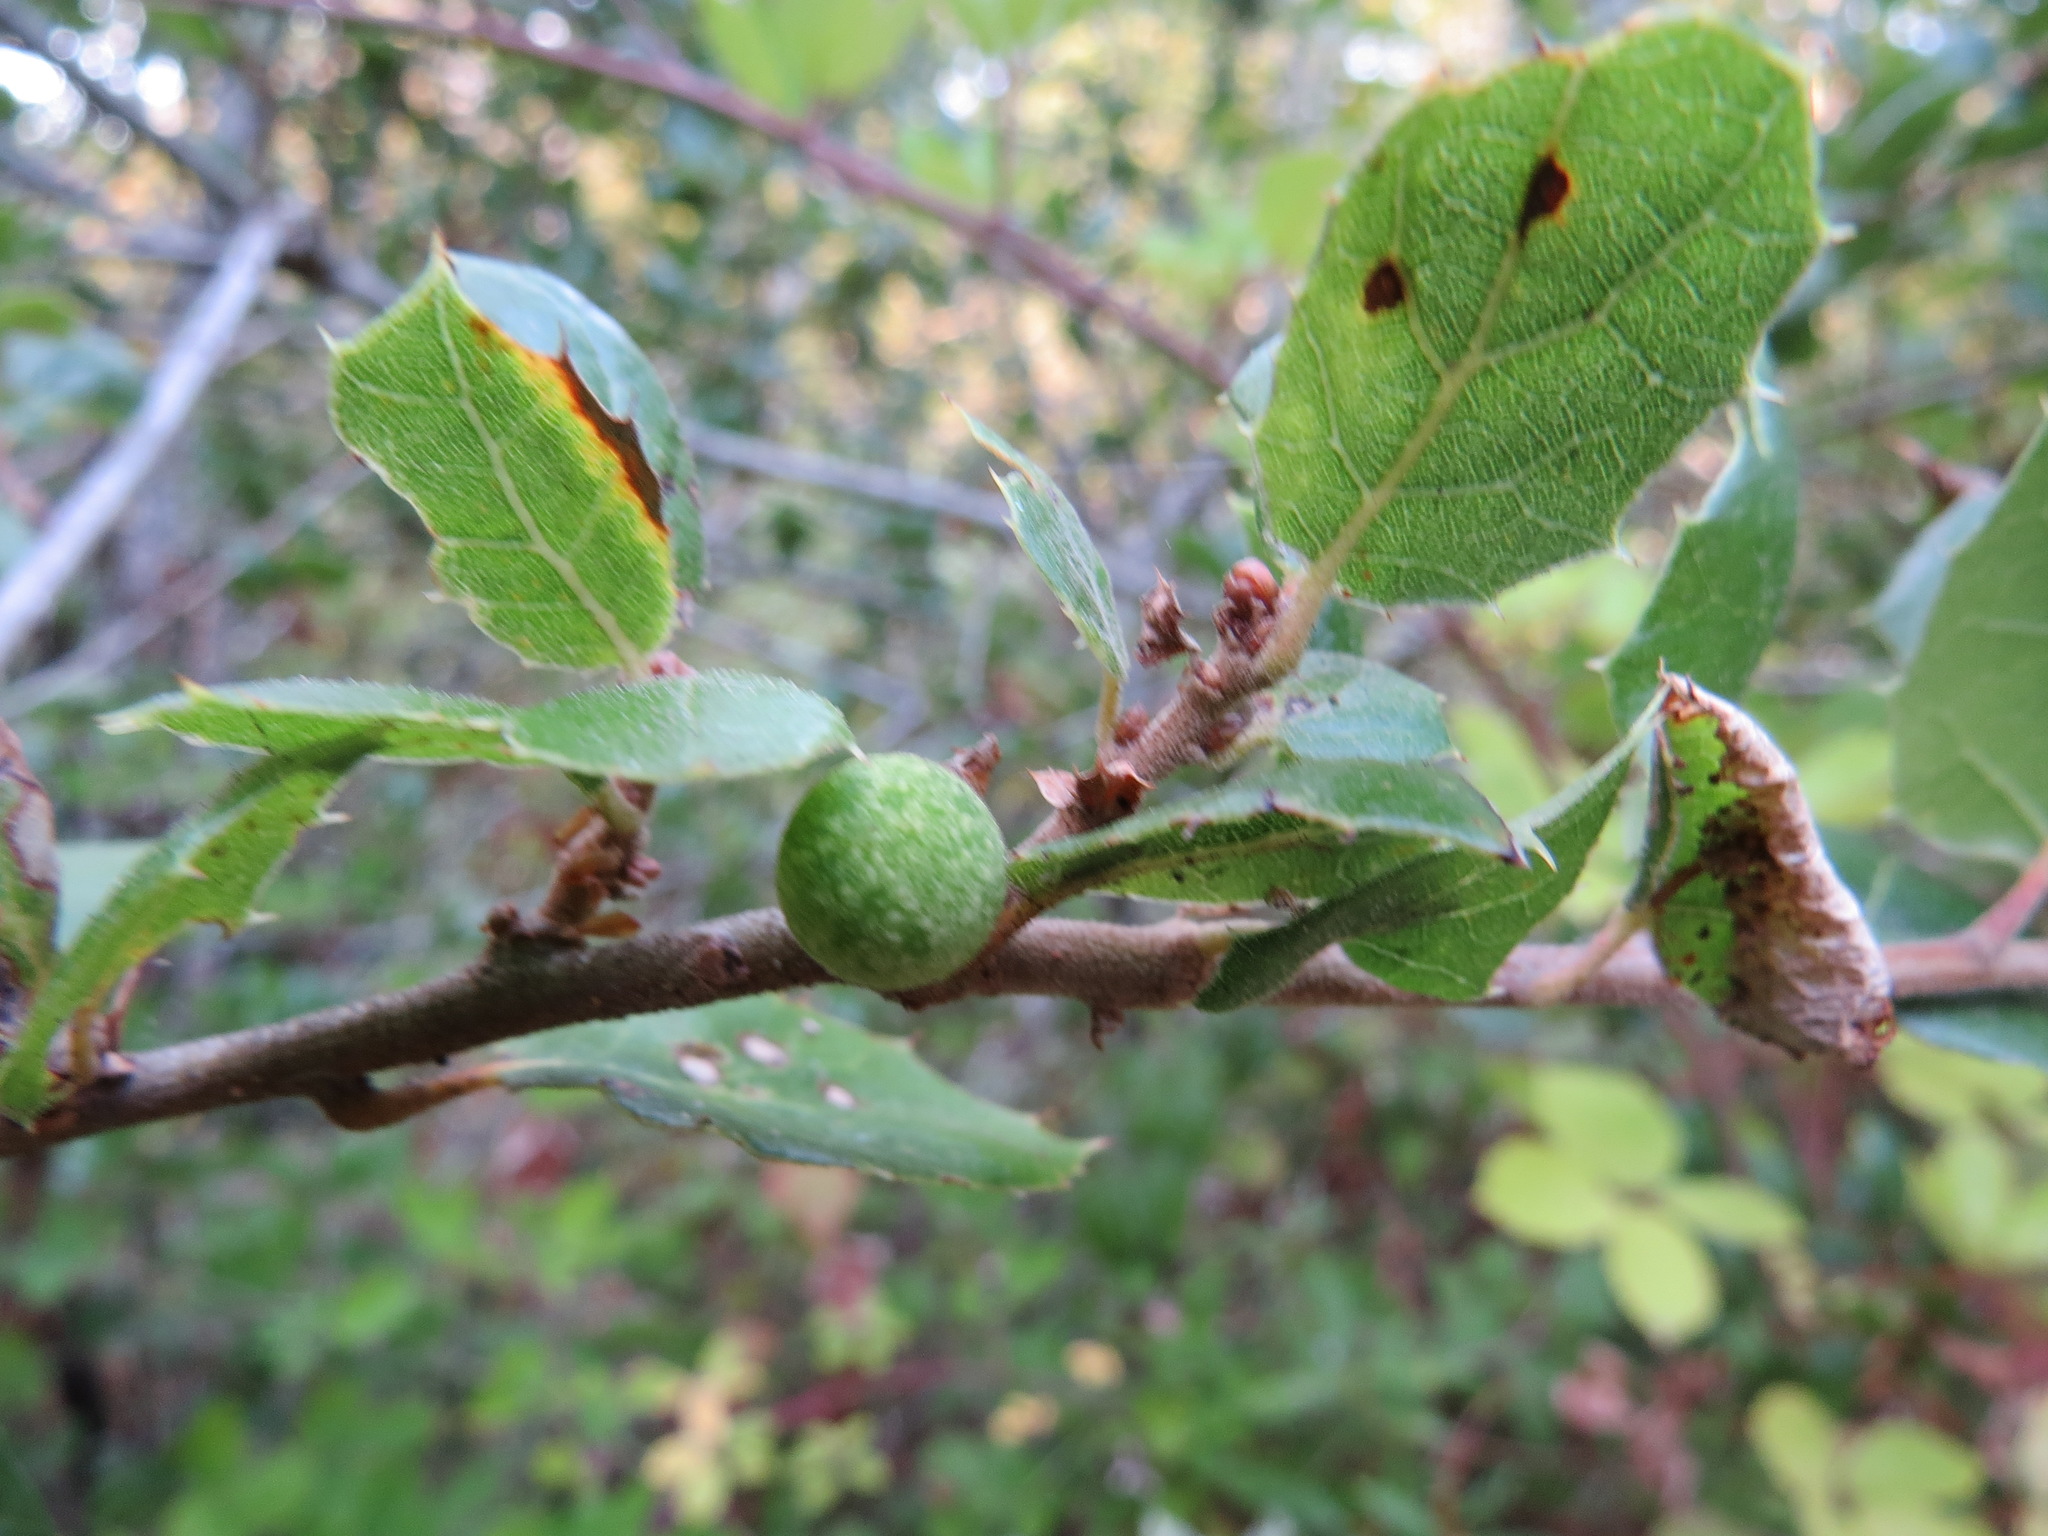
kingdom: Animalia
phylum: Arthropoda
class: Insecta
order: Hymenoptera
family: Cynipidae
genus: Callirhytis
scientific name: Callirhytis
